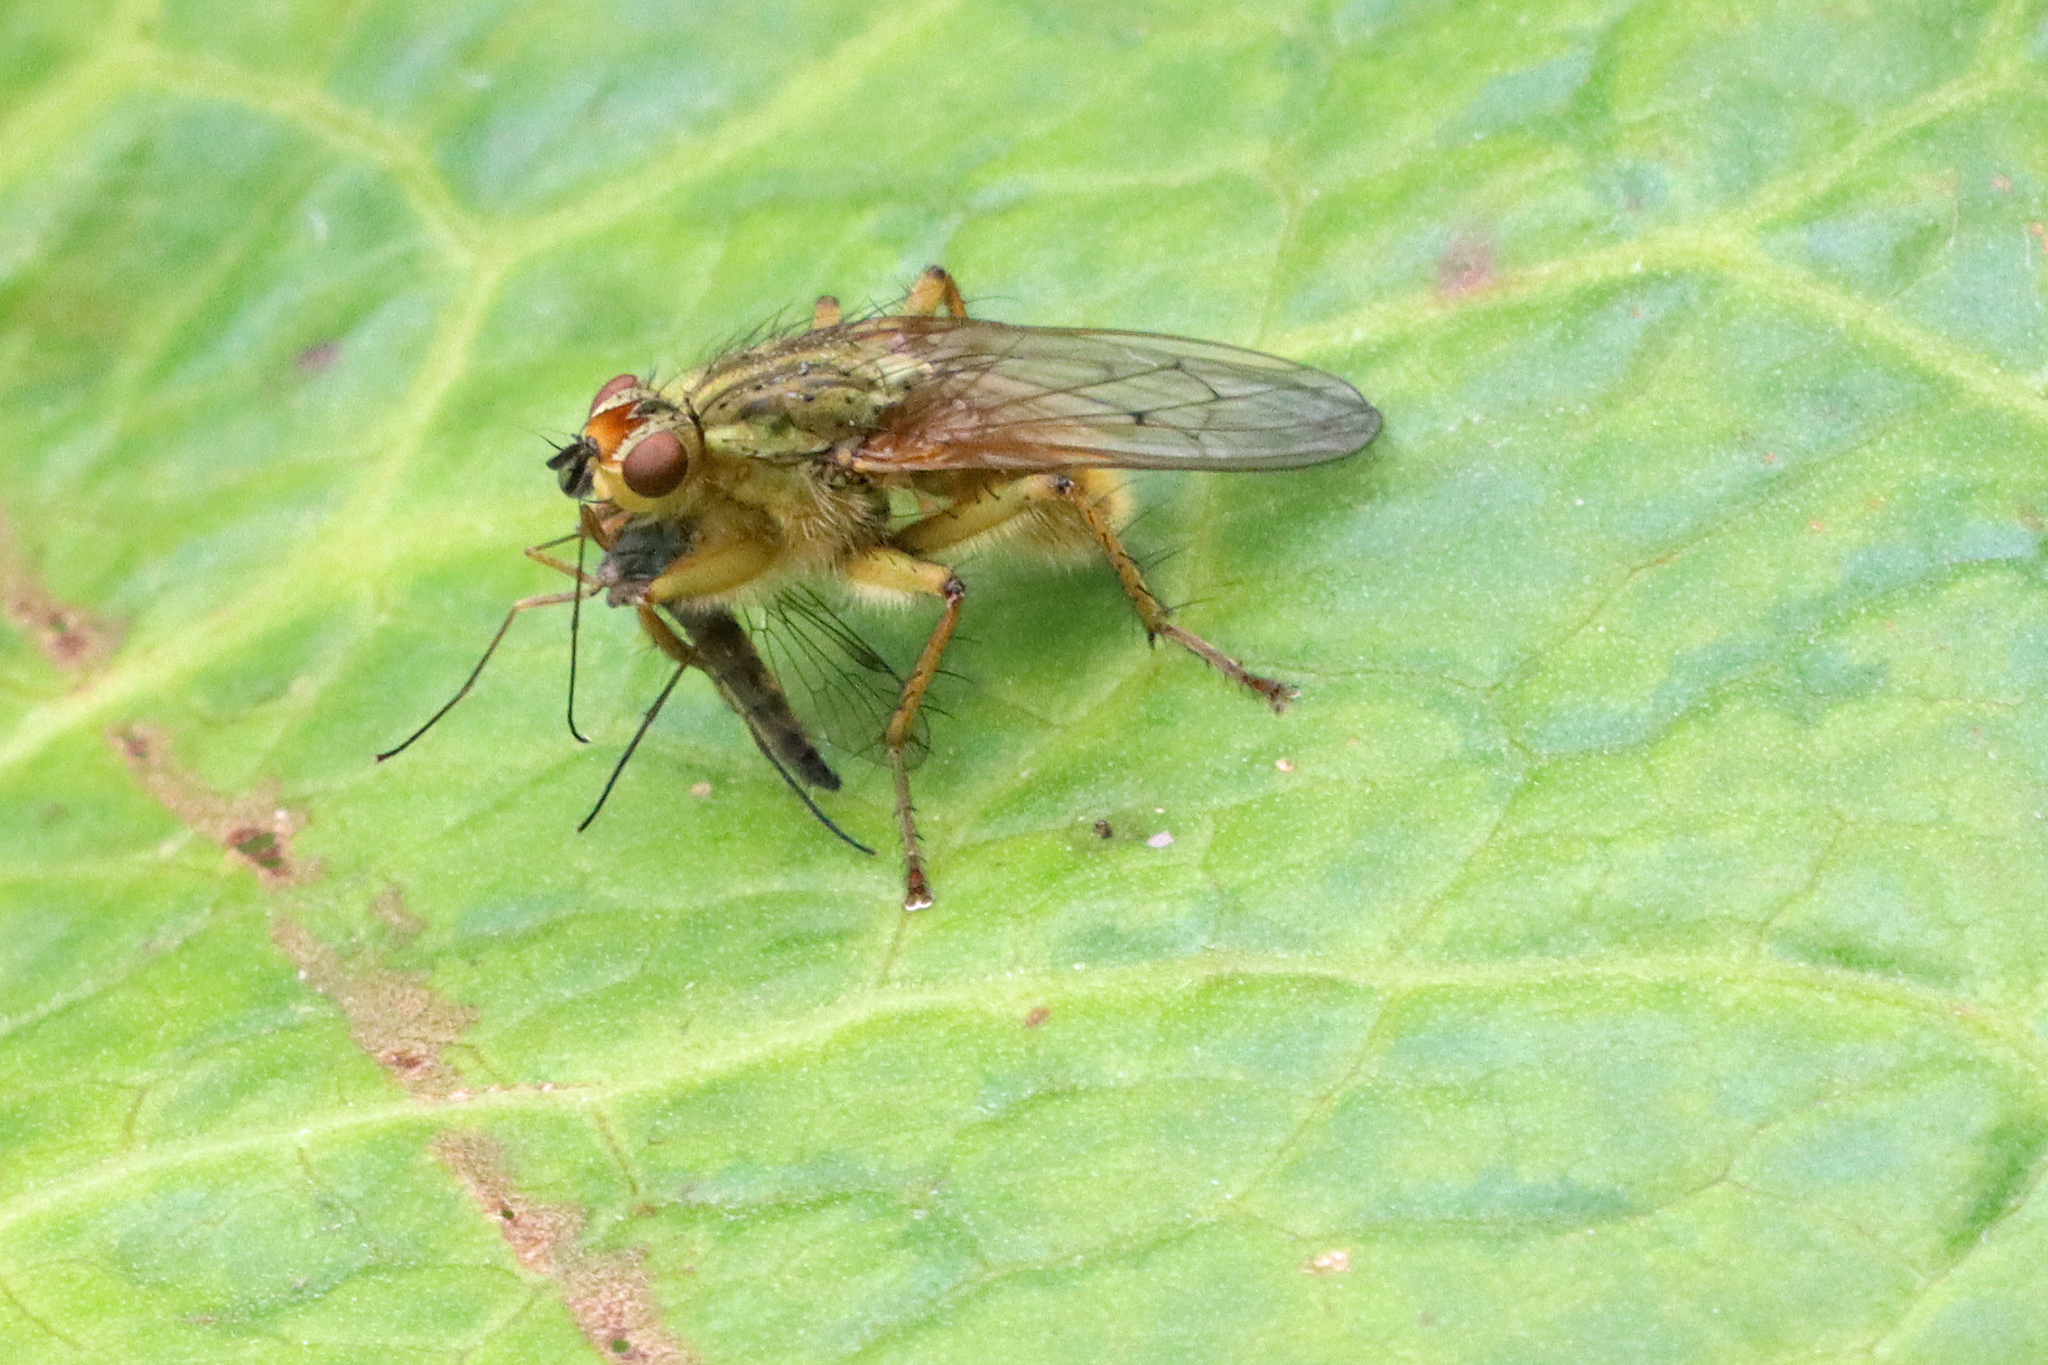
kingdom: Animalia
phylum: Arthropoda
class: Insecta
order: Diptera
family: Scathophagidae
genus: Scathophaga
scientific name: Scathophaga stercoraria
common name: Yellow dung fly
